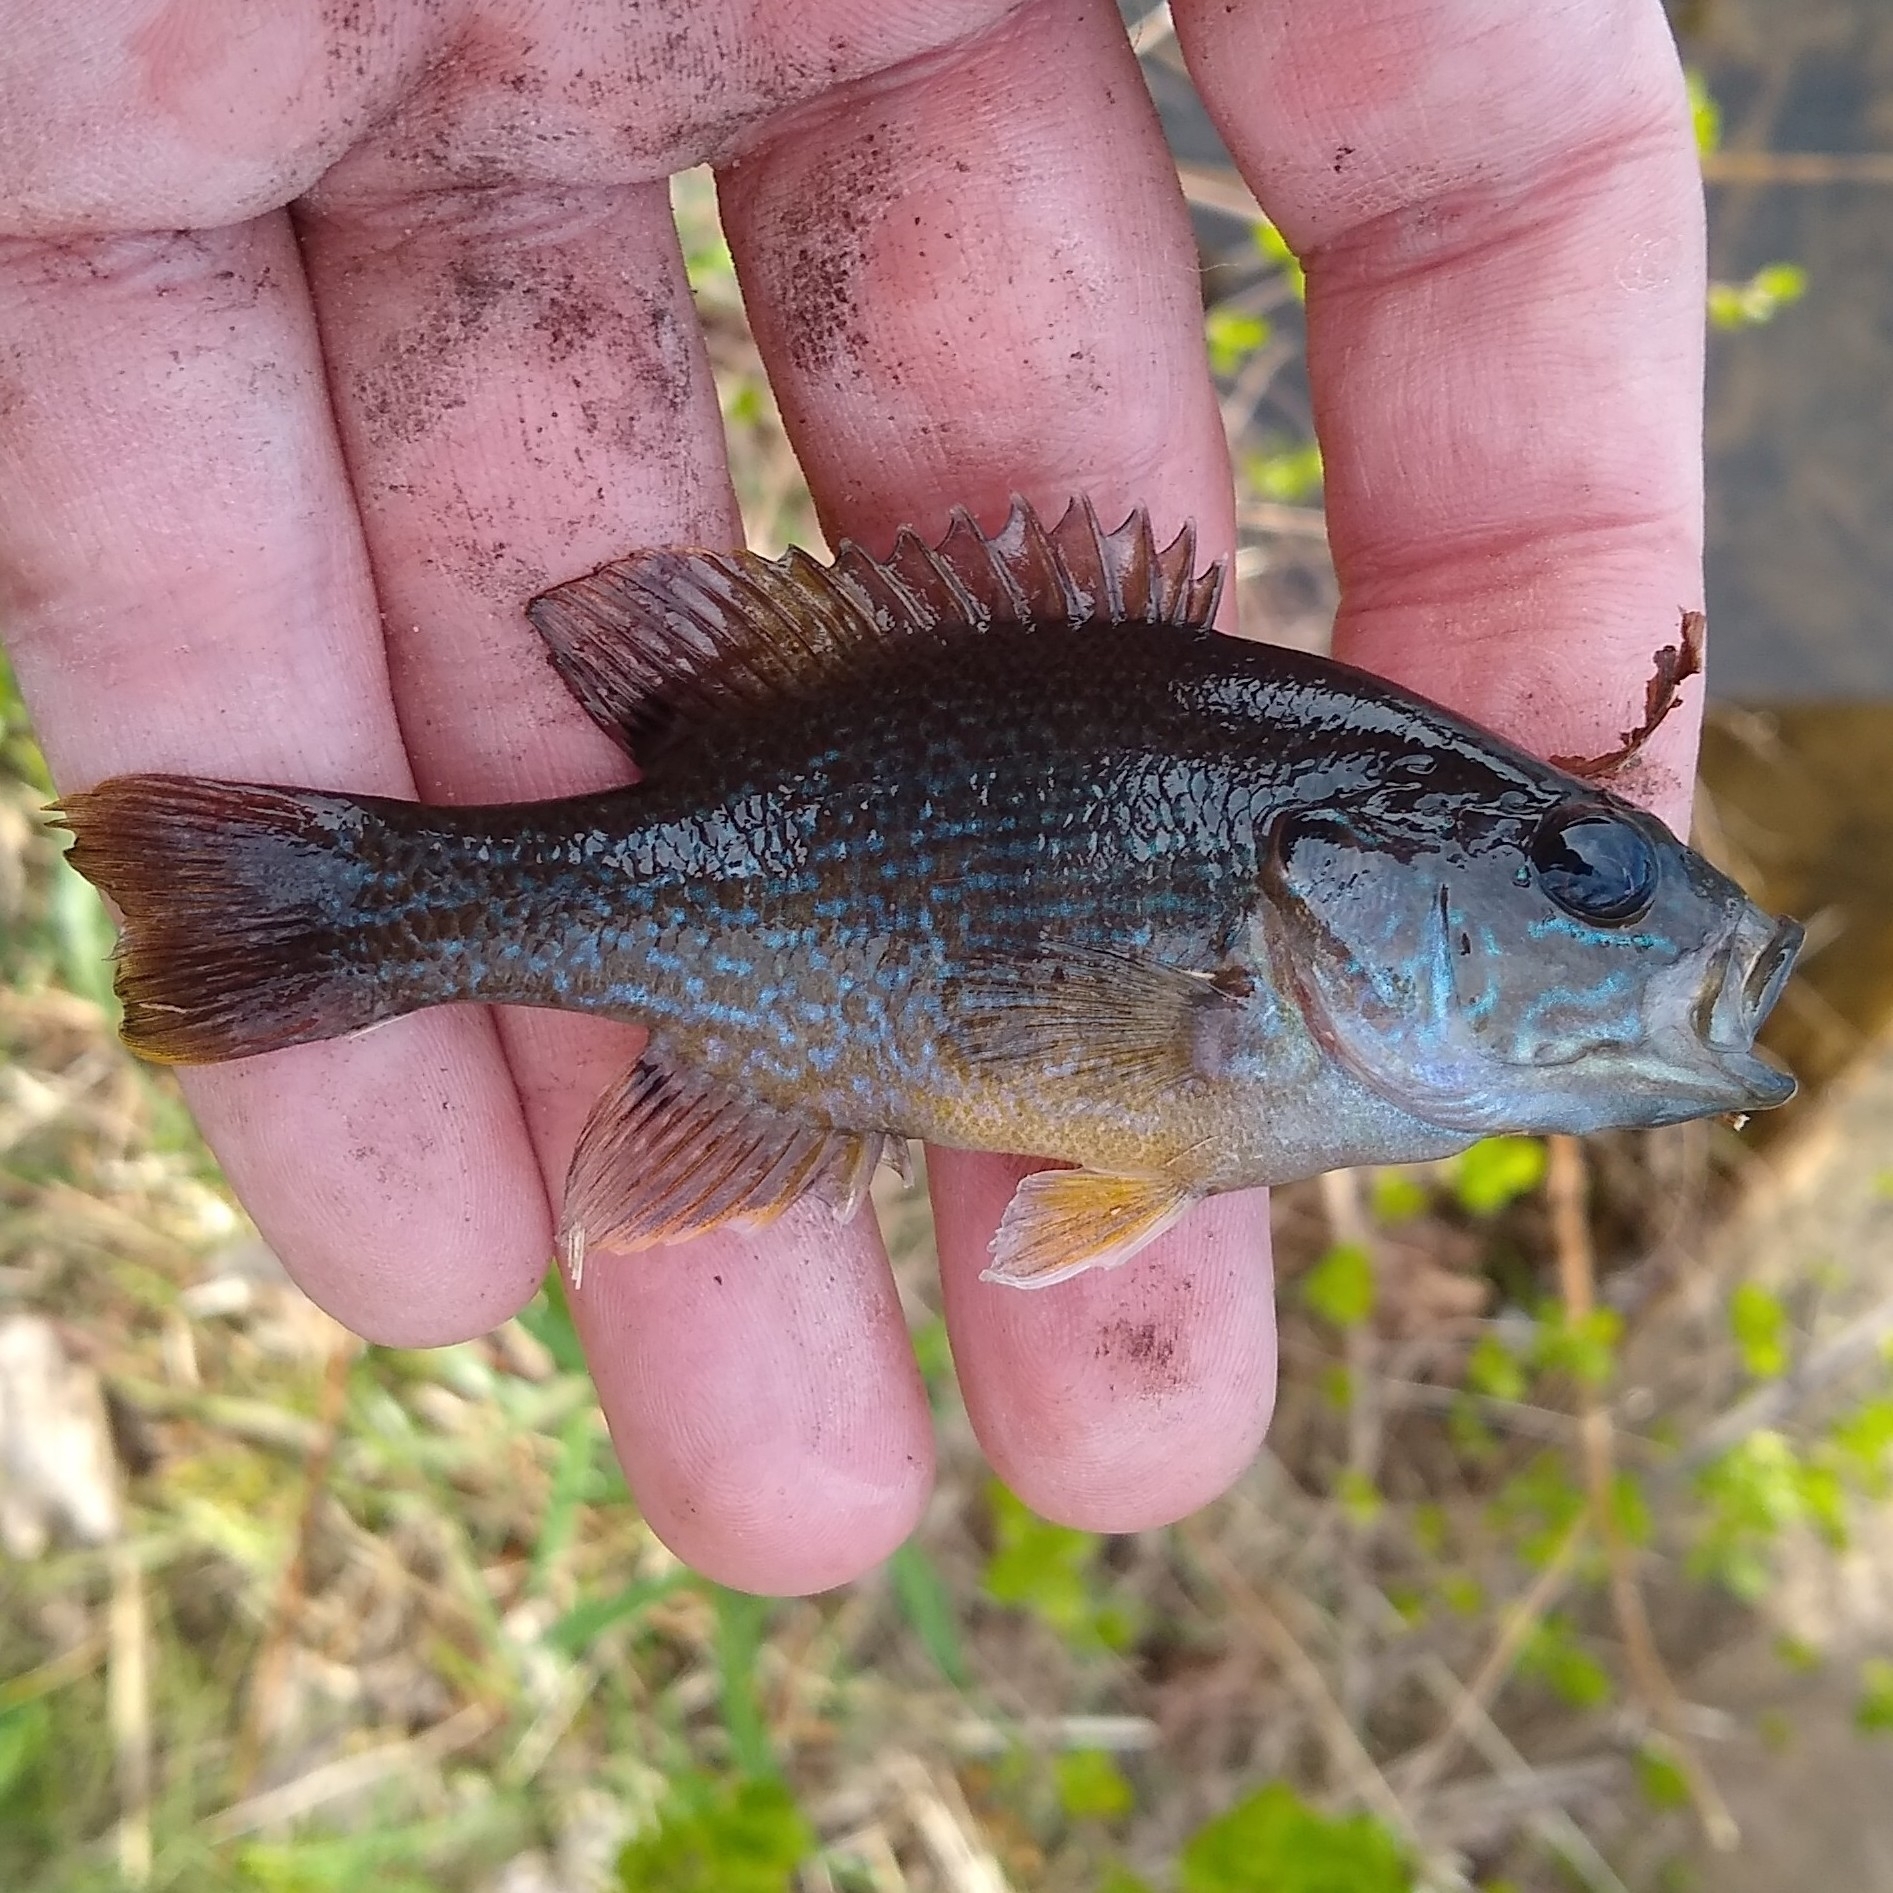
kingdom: Animalia
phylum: Chordata
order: Perciformes
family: Centrarchidae
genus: Lepomis
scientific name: Lepomis cyanellus
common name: Green sunfish
